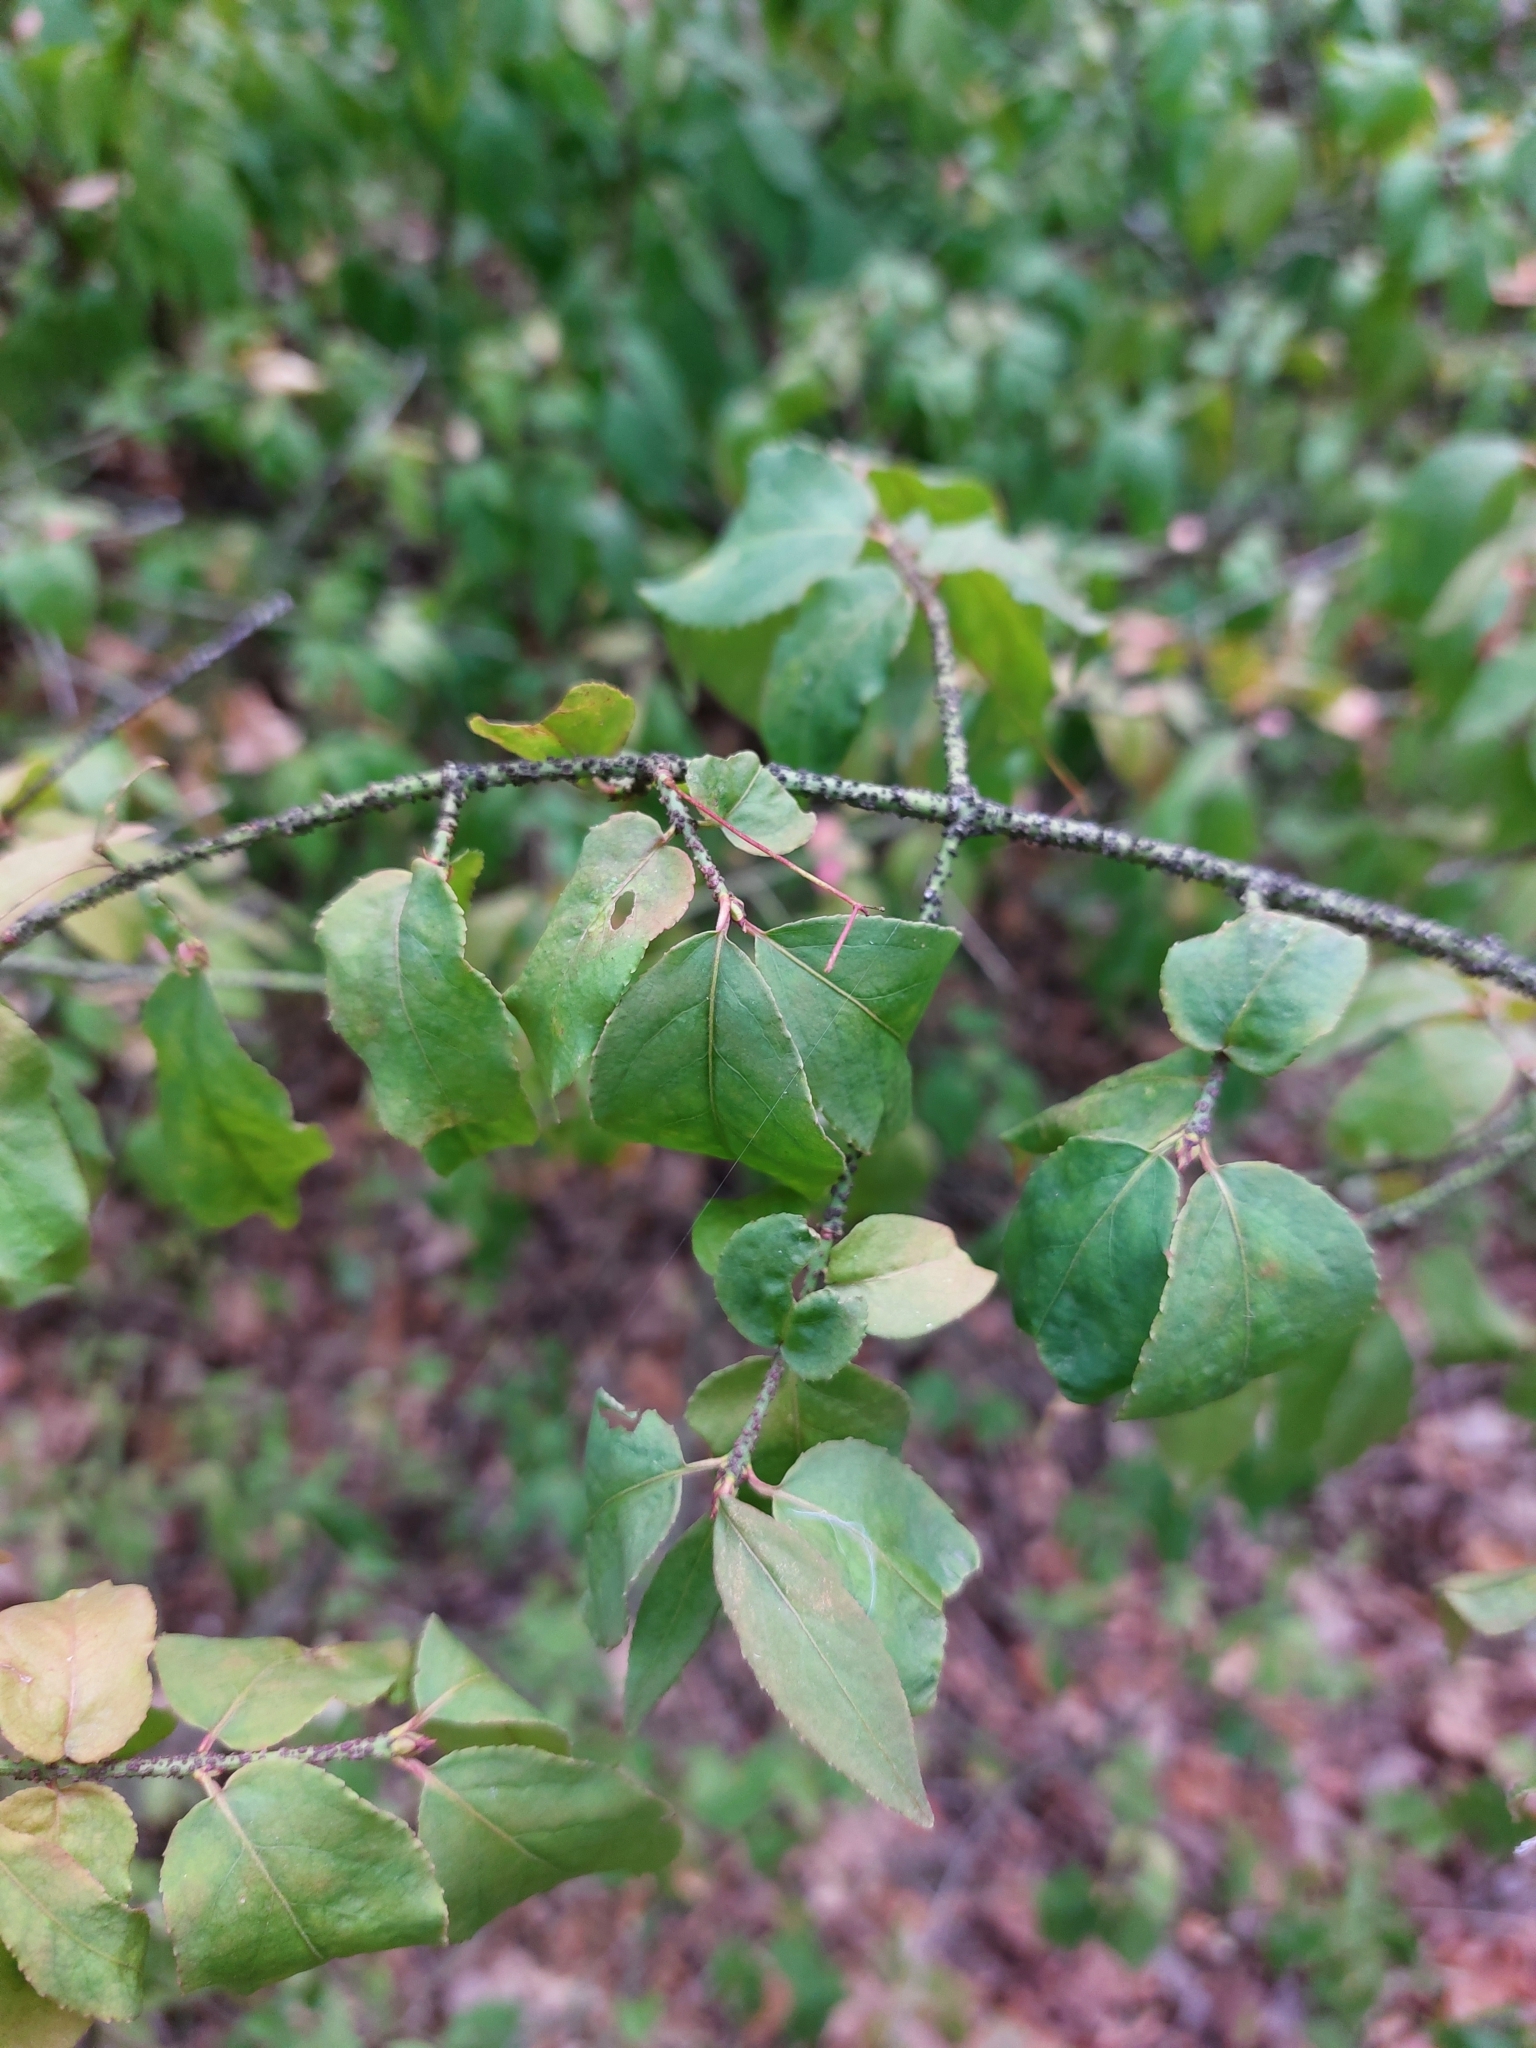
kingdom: Plantae
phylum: Tracheophyta
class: Magnoliopsida
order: Celastrales
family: Celastraceae
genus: Euonymus
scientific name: Euonymus verrucosus
